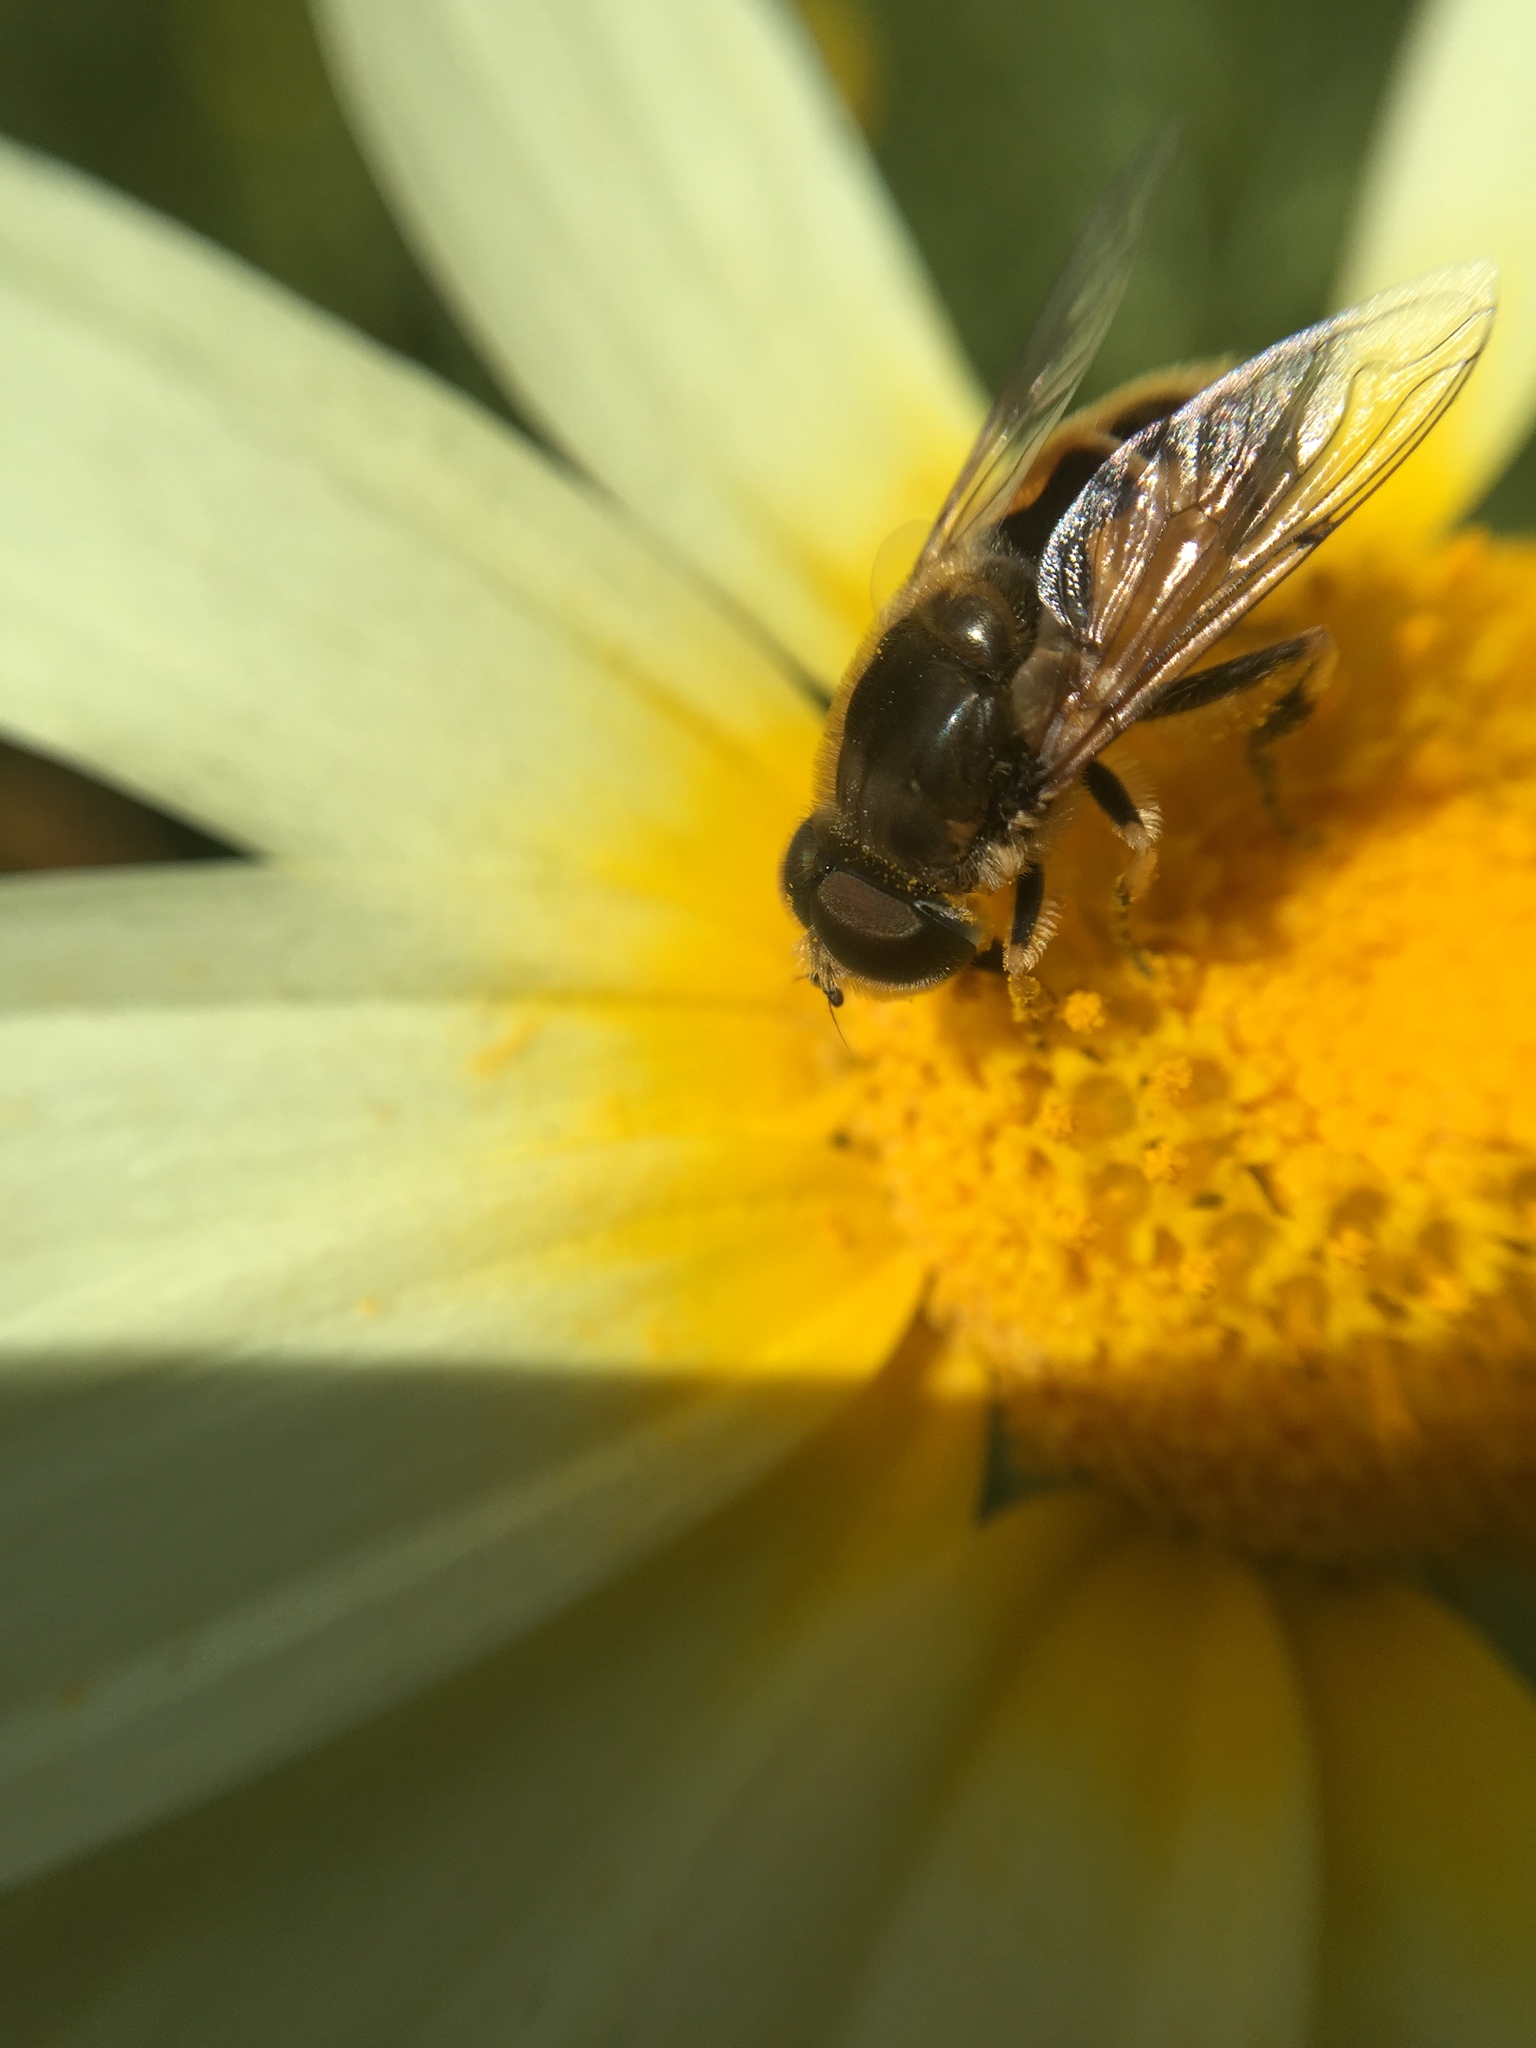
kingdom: Animalia
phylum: Arthropoda
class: Insecta
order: Diptera
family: Syrphidae
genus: Eristalis
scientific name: Eristalis arbustorum
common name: Hover fly
